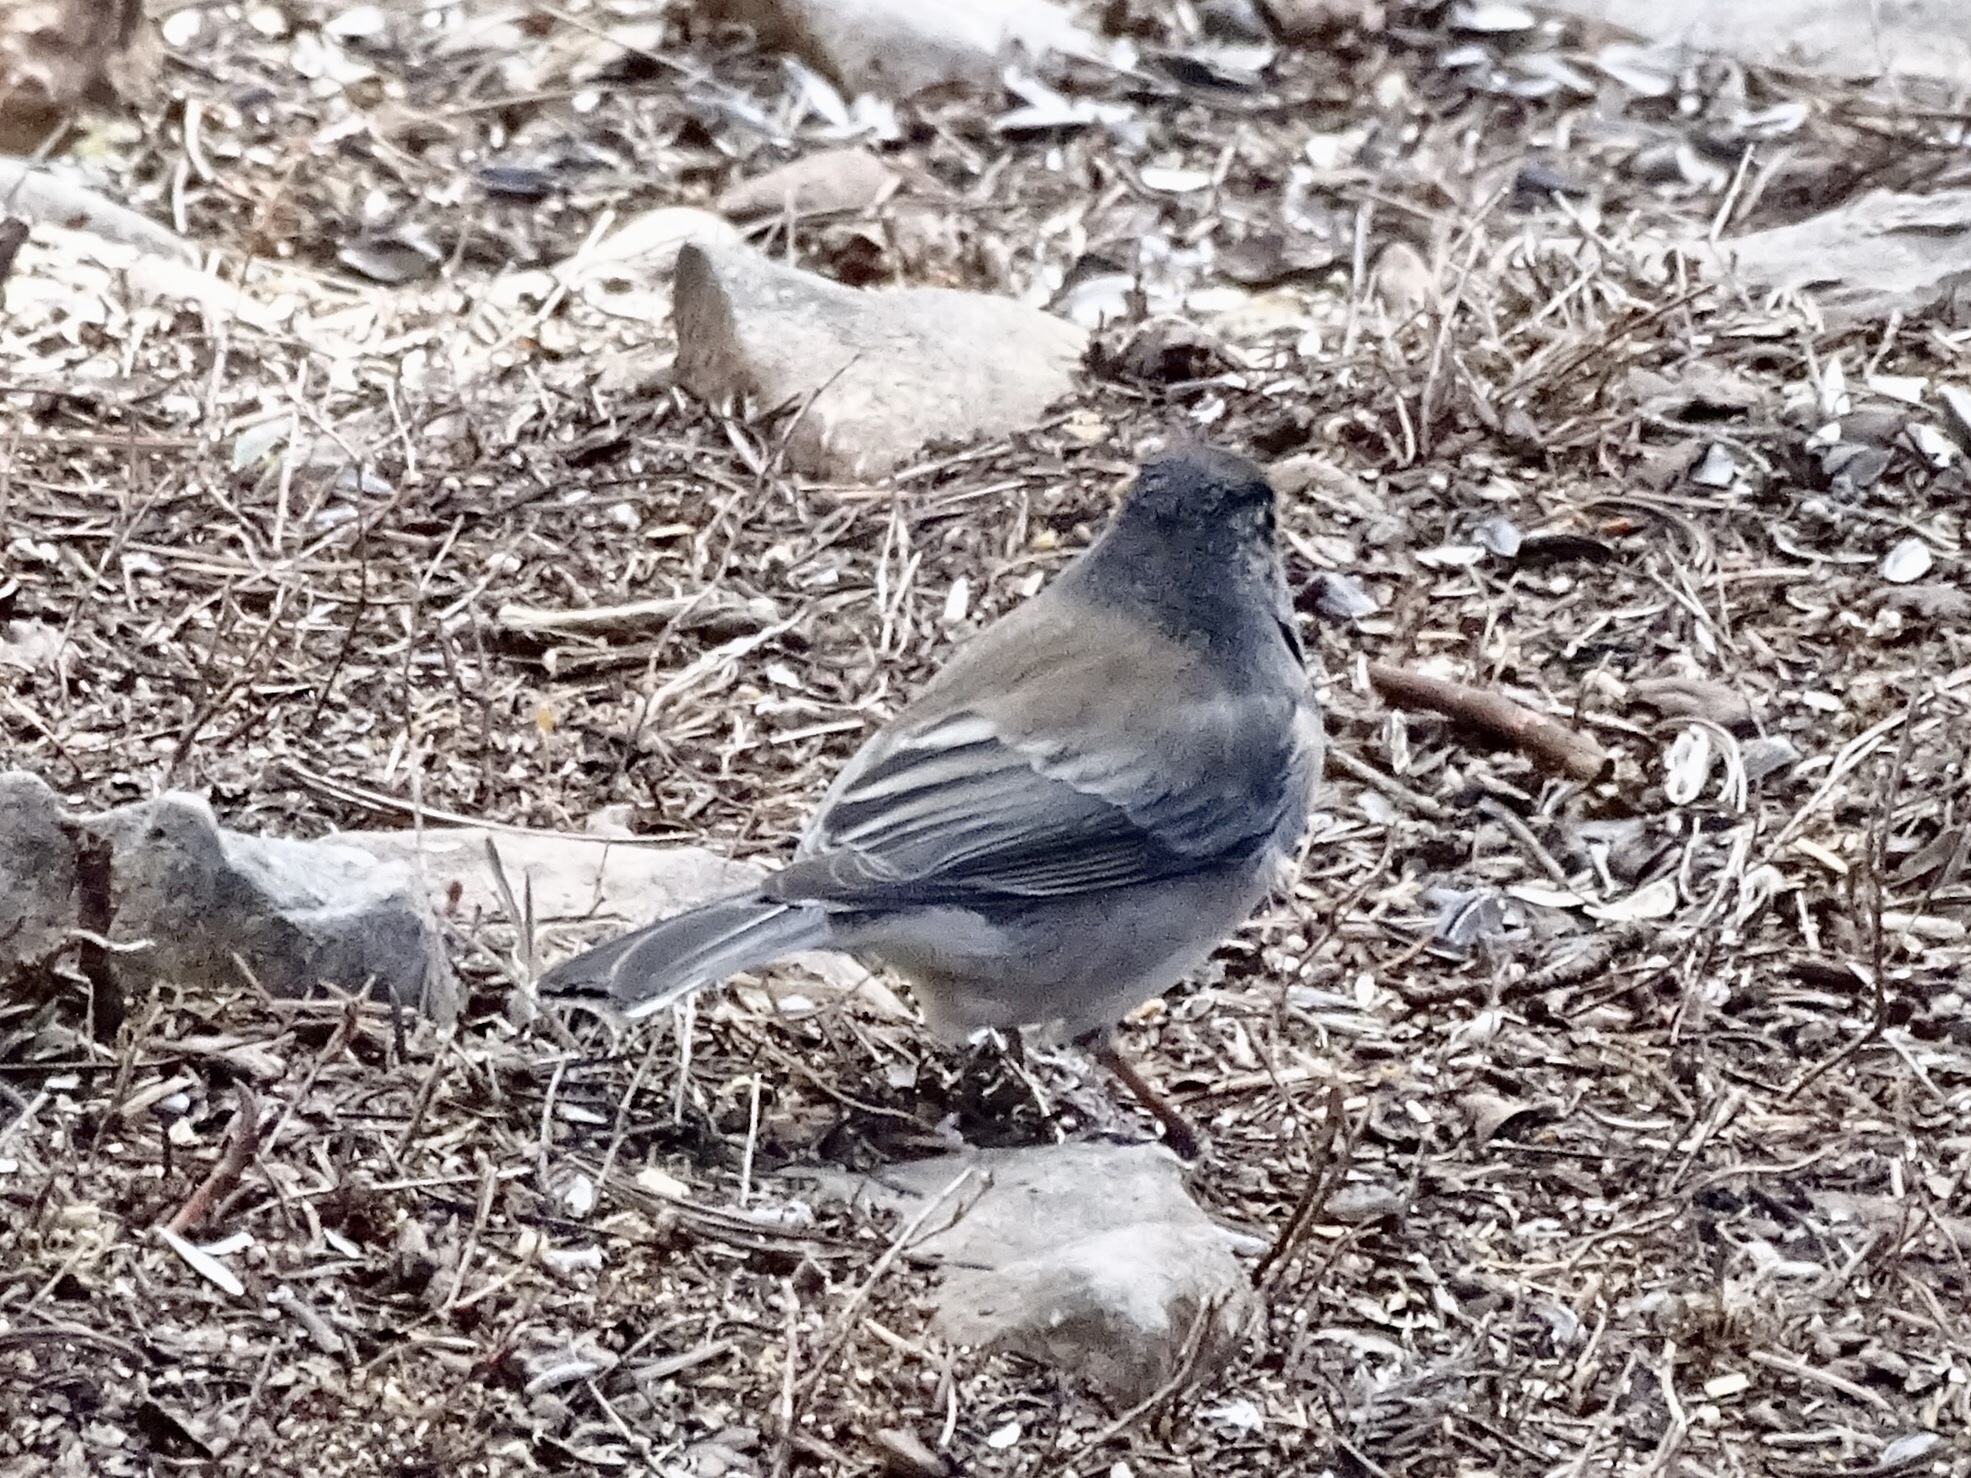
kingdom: Animalia
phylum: Chordata
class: Aves
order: Passeriformes
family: Passerellidae
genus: Junco
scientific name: Junco hyemalis
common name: Dark-eyed junco
